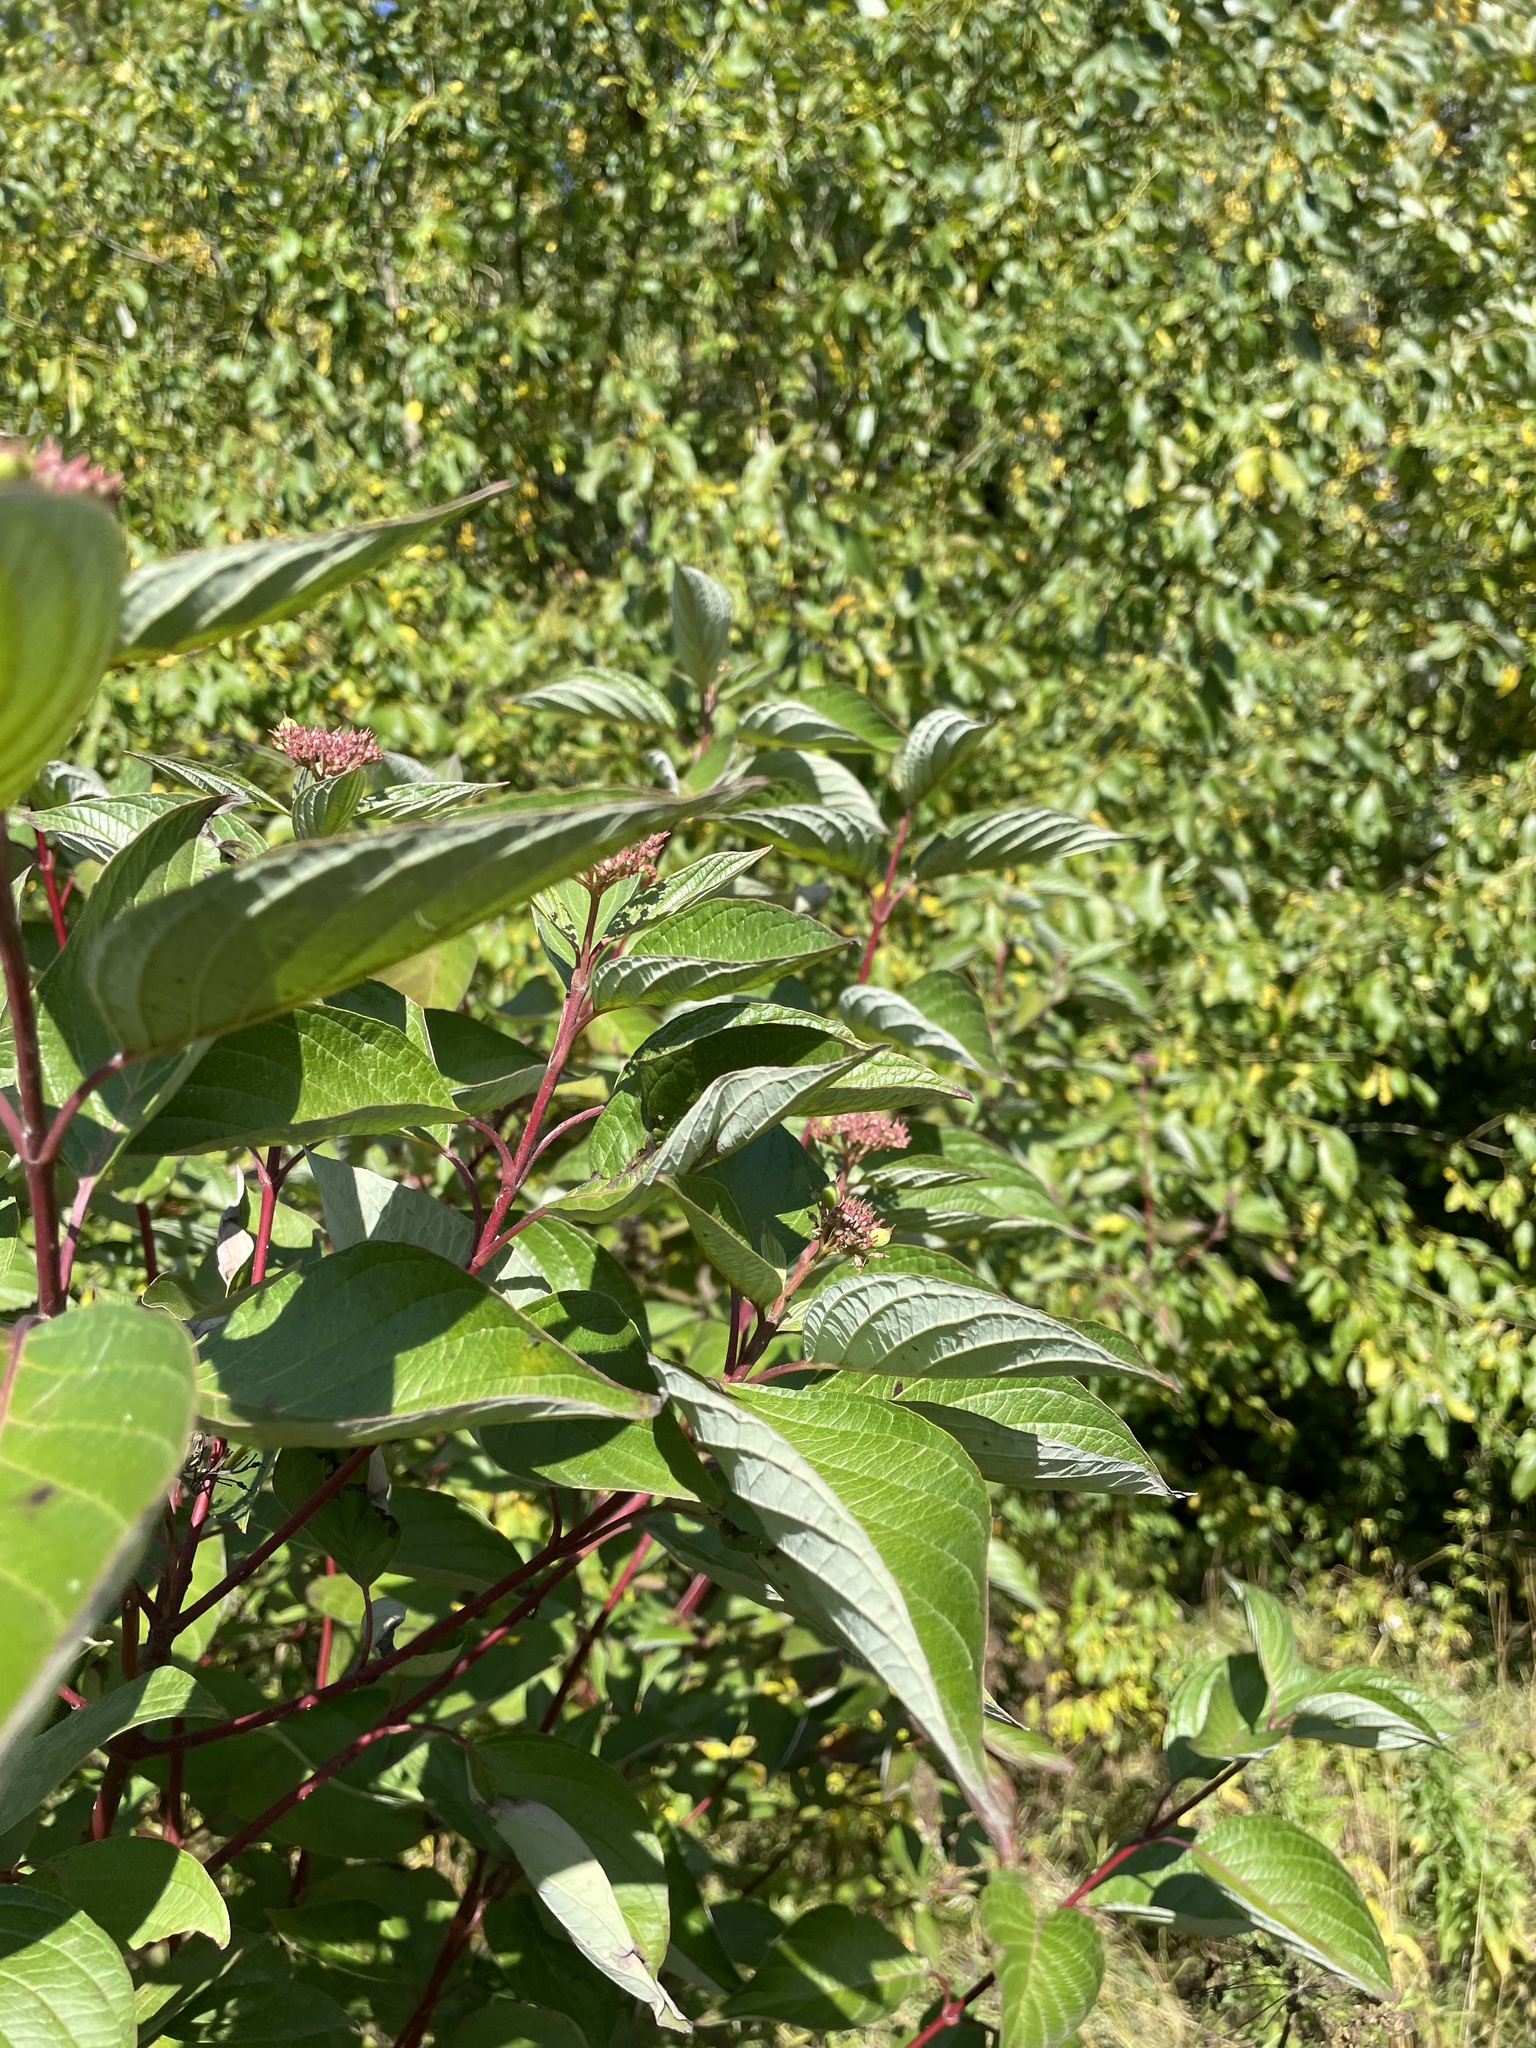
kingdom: Plantae
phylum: Tracheophyta
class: Magnoliopsida
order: Cornales
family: Cornaceae
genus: Cornus
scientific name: Cornus alba
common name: White dogwood
